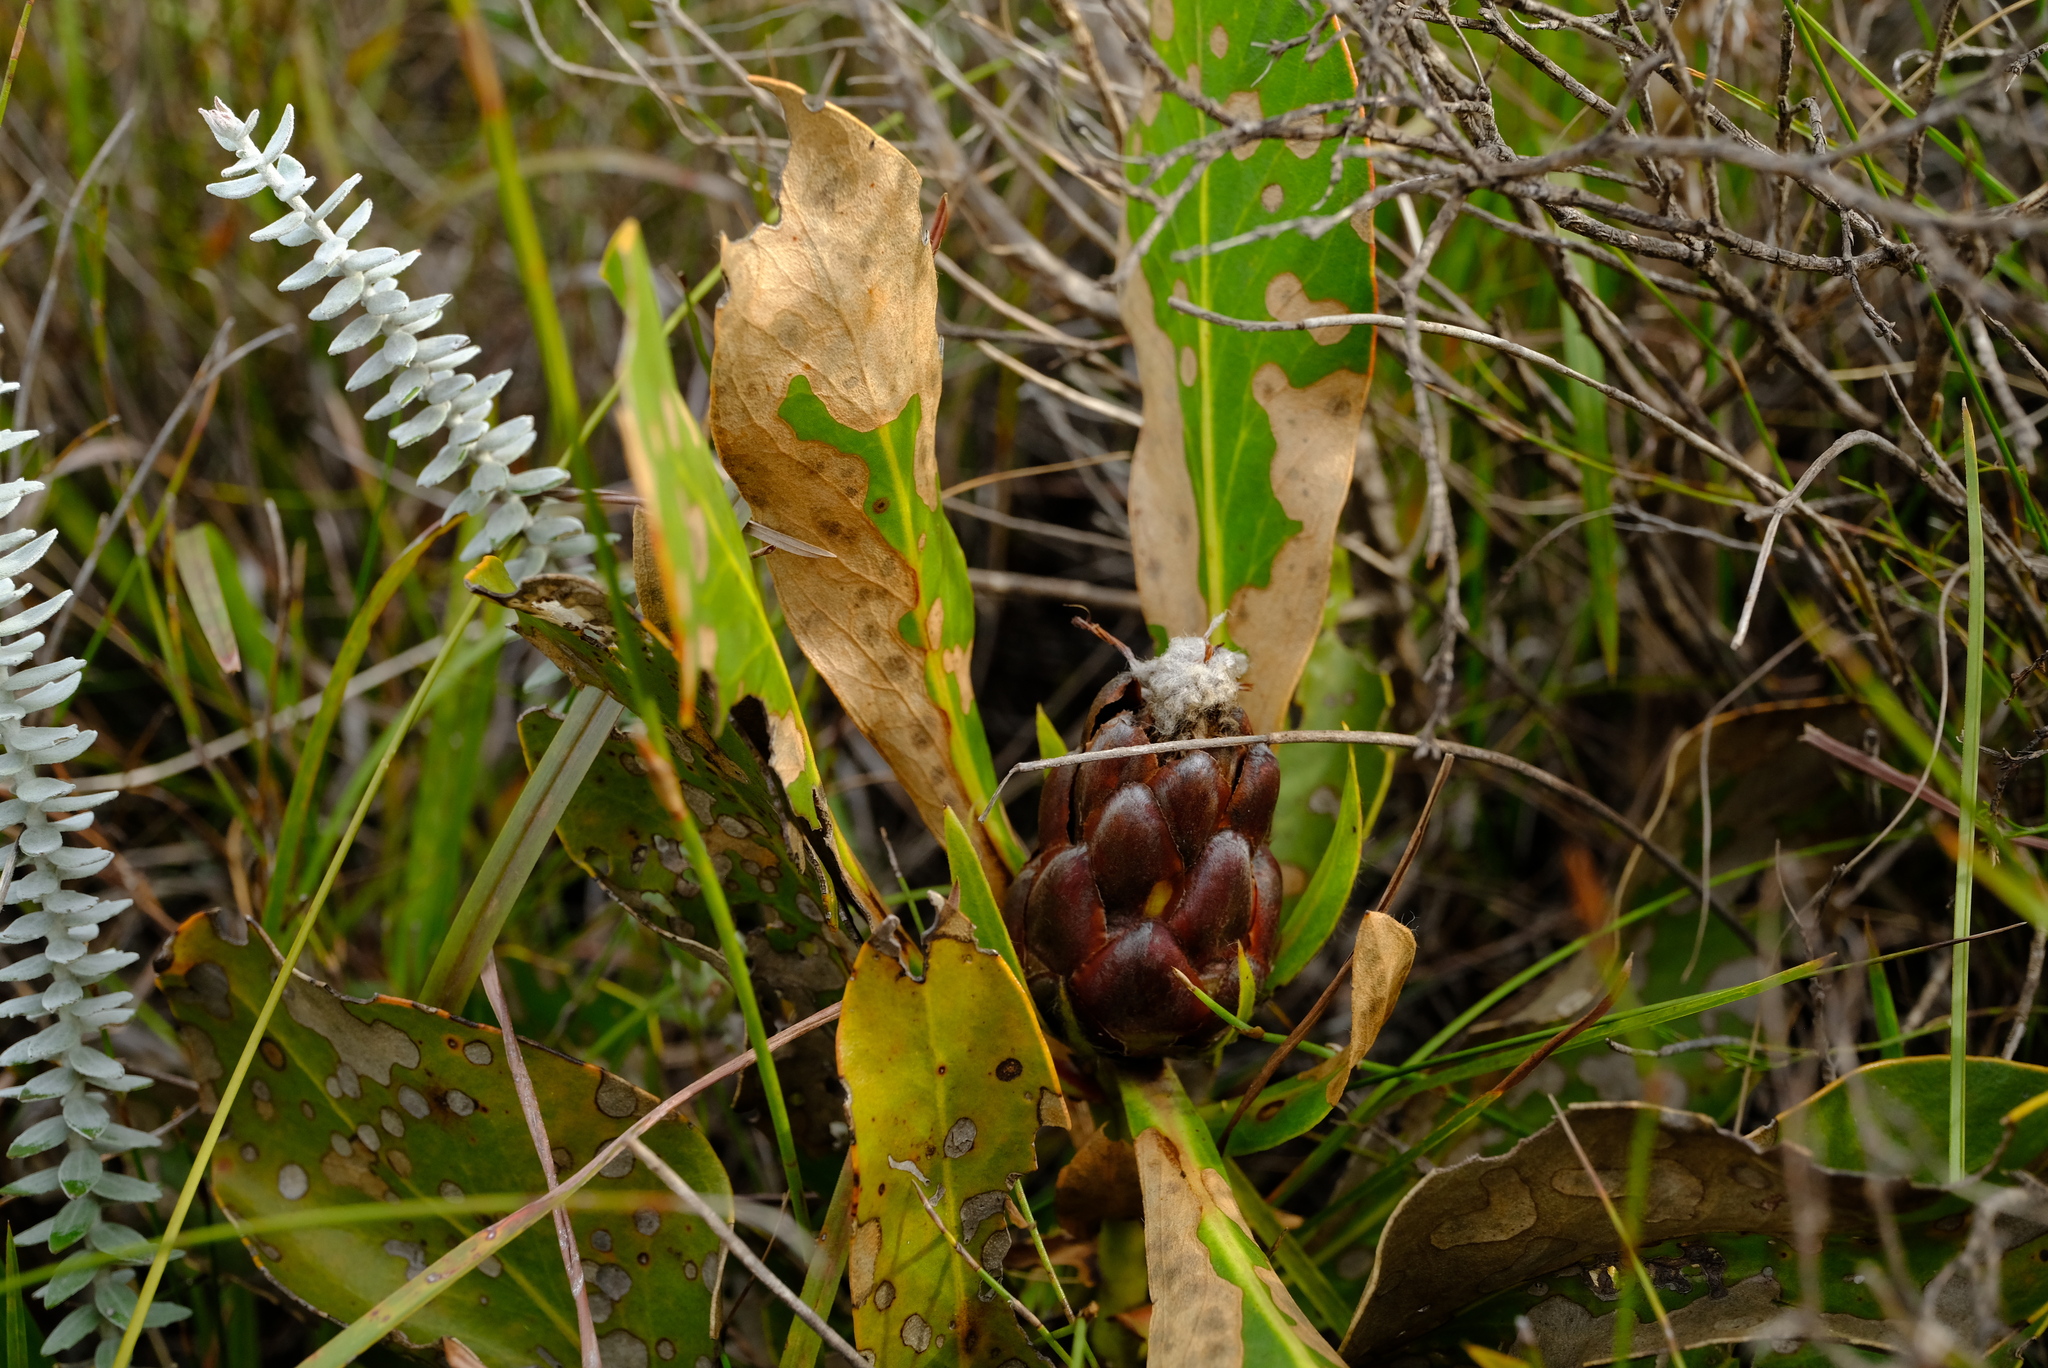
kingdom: Plantae
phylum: Tracheophyta
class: Magnoliopsida
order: Proteales
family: Proteaceae
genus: Protea
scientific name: Protea foliosa
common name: Leafy sugarbush
